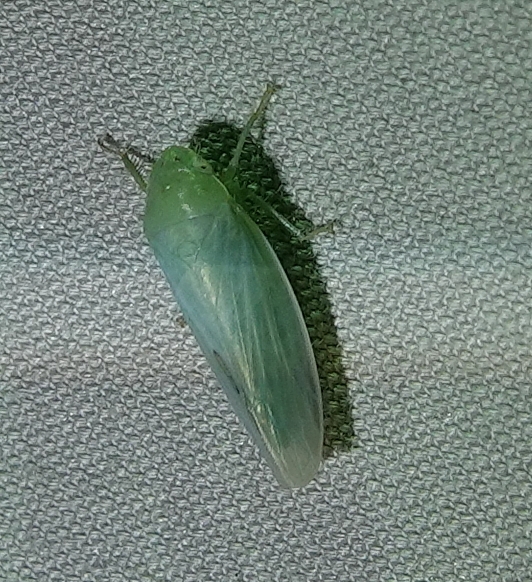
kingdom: Animalia
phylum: Arthropoda
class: Insecta
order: Hemiptera
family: Cicadellidae
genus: Gyponana
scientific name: Gyponana
